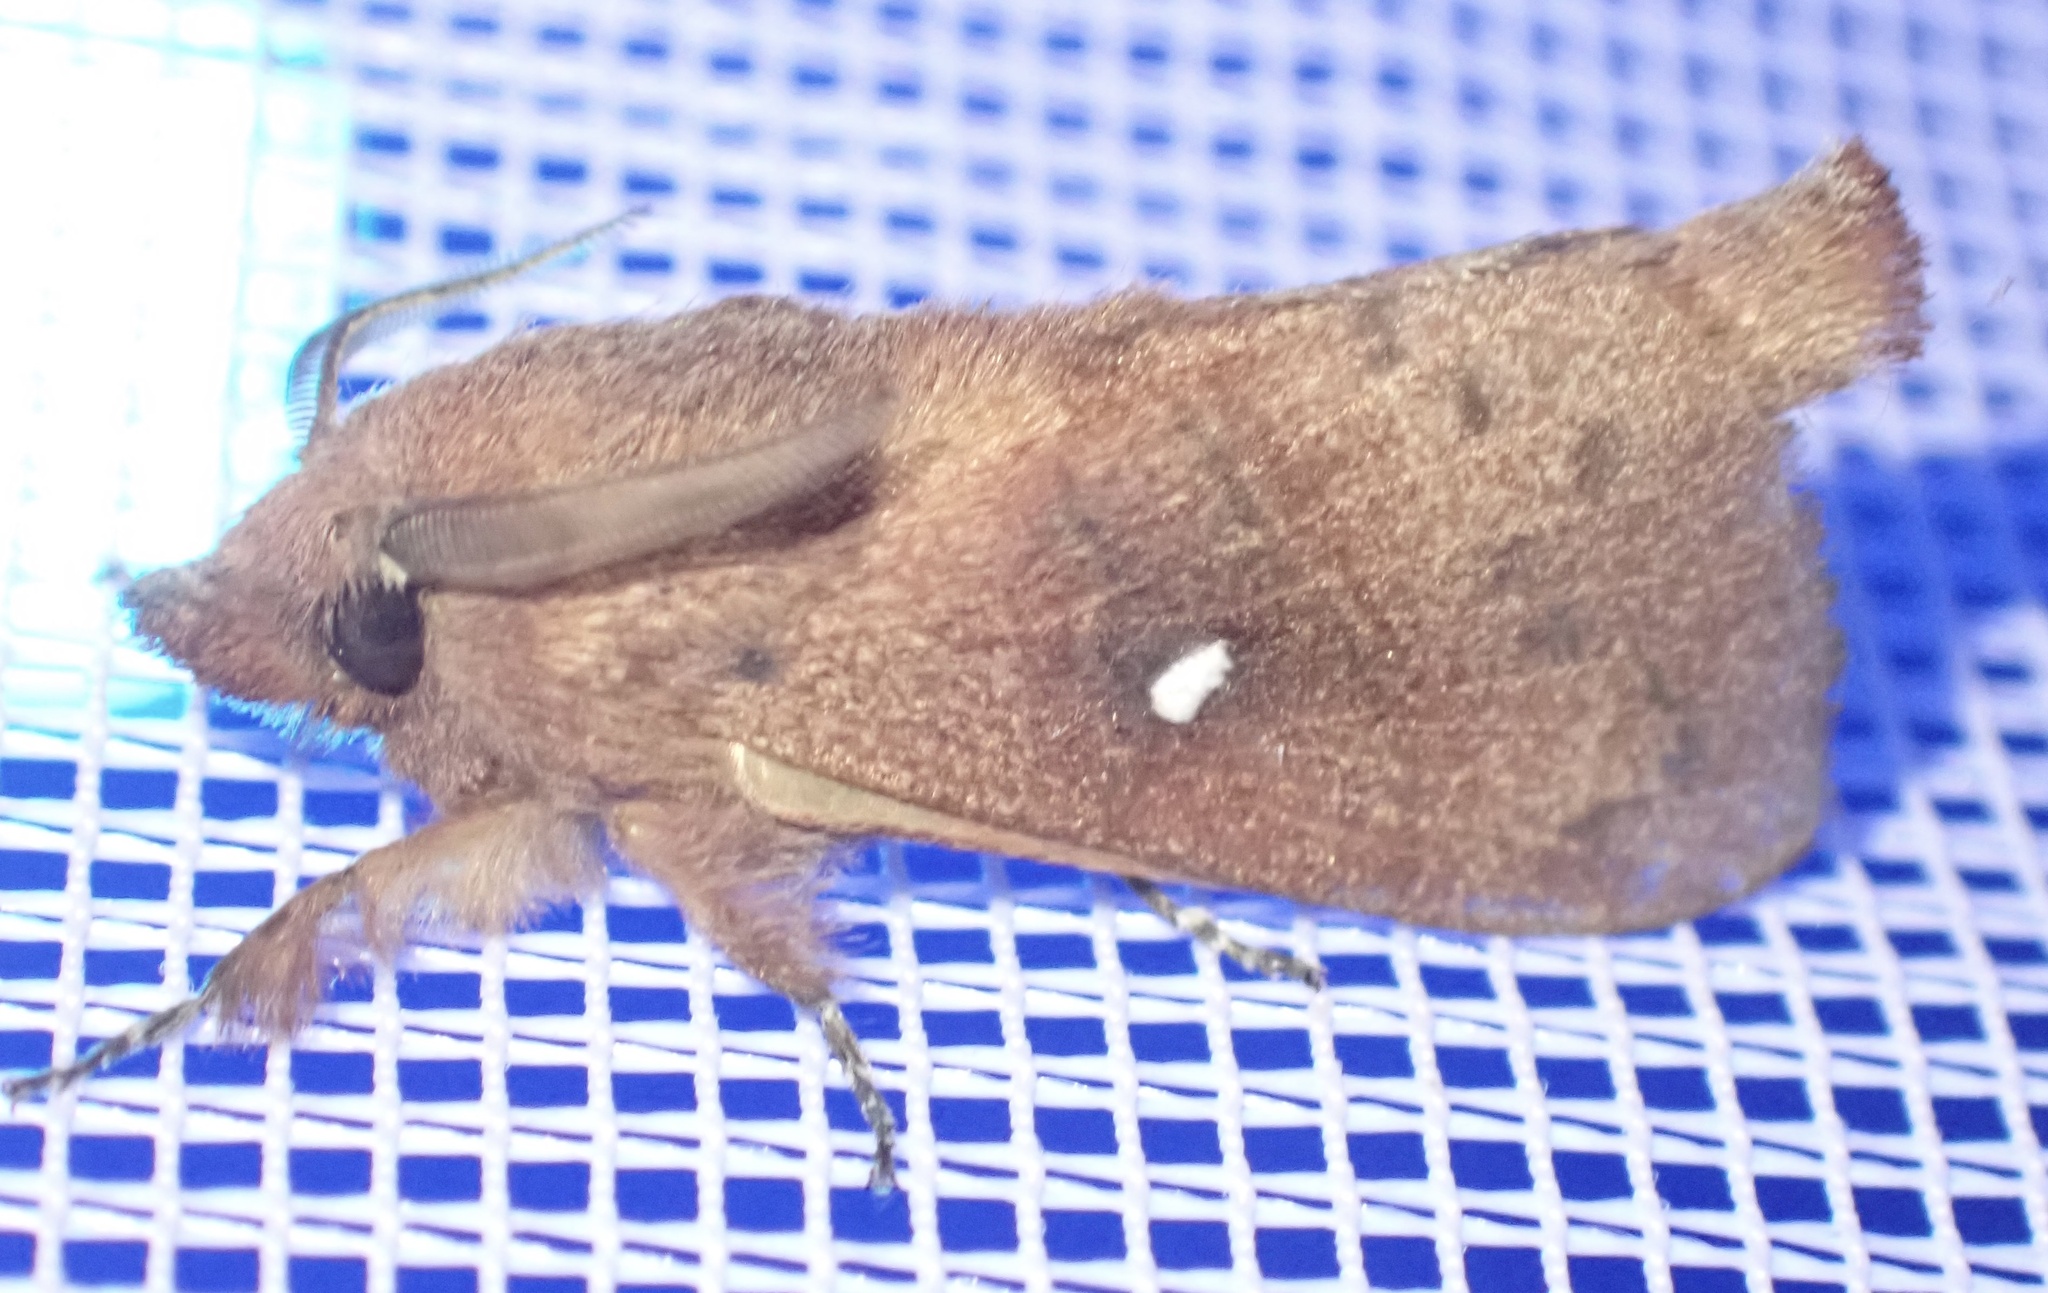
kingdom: Animalia
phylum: Arthropoda
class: Insecta
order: Lepidoptera
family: Lasiocampidae
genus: Opsirhina
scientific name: Opsirhina lechriodes
